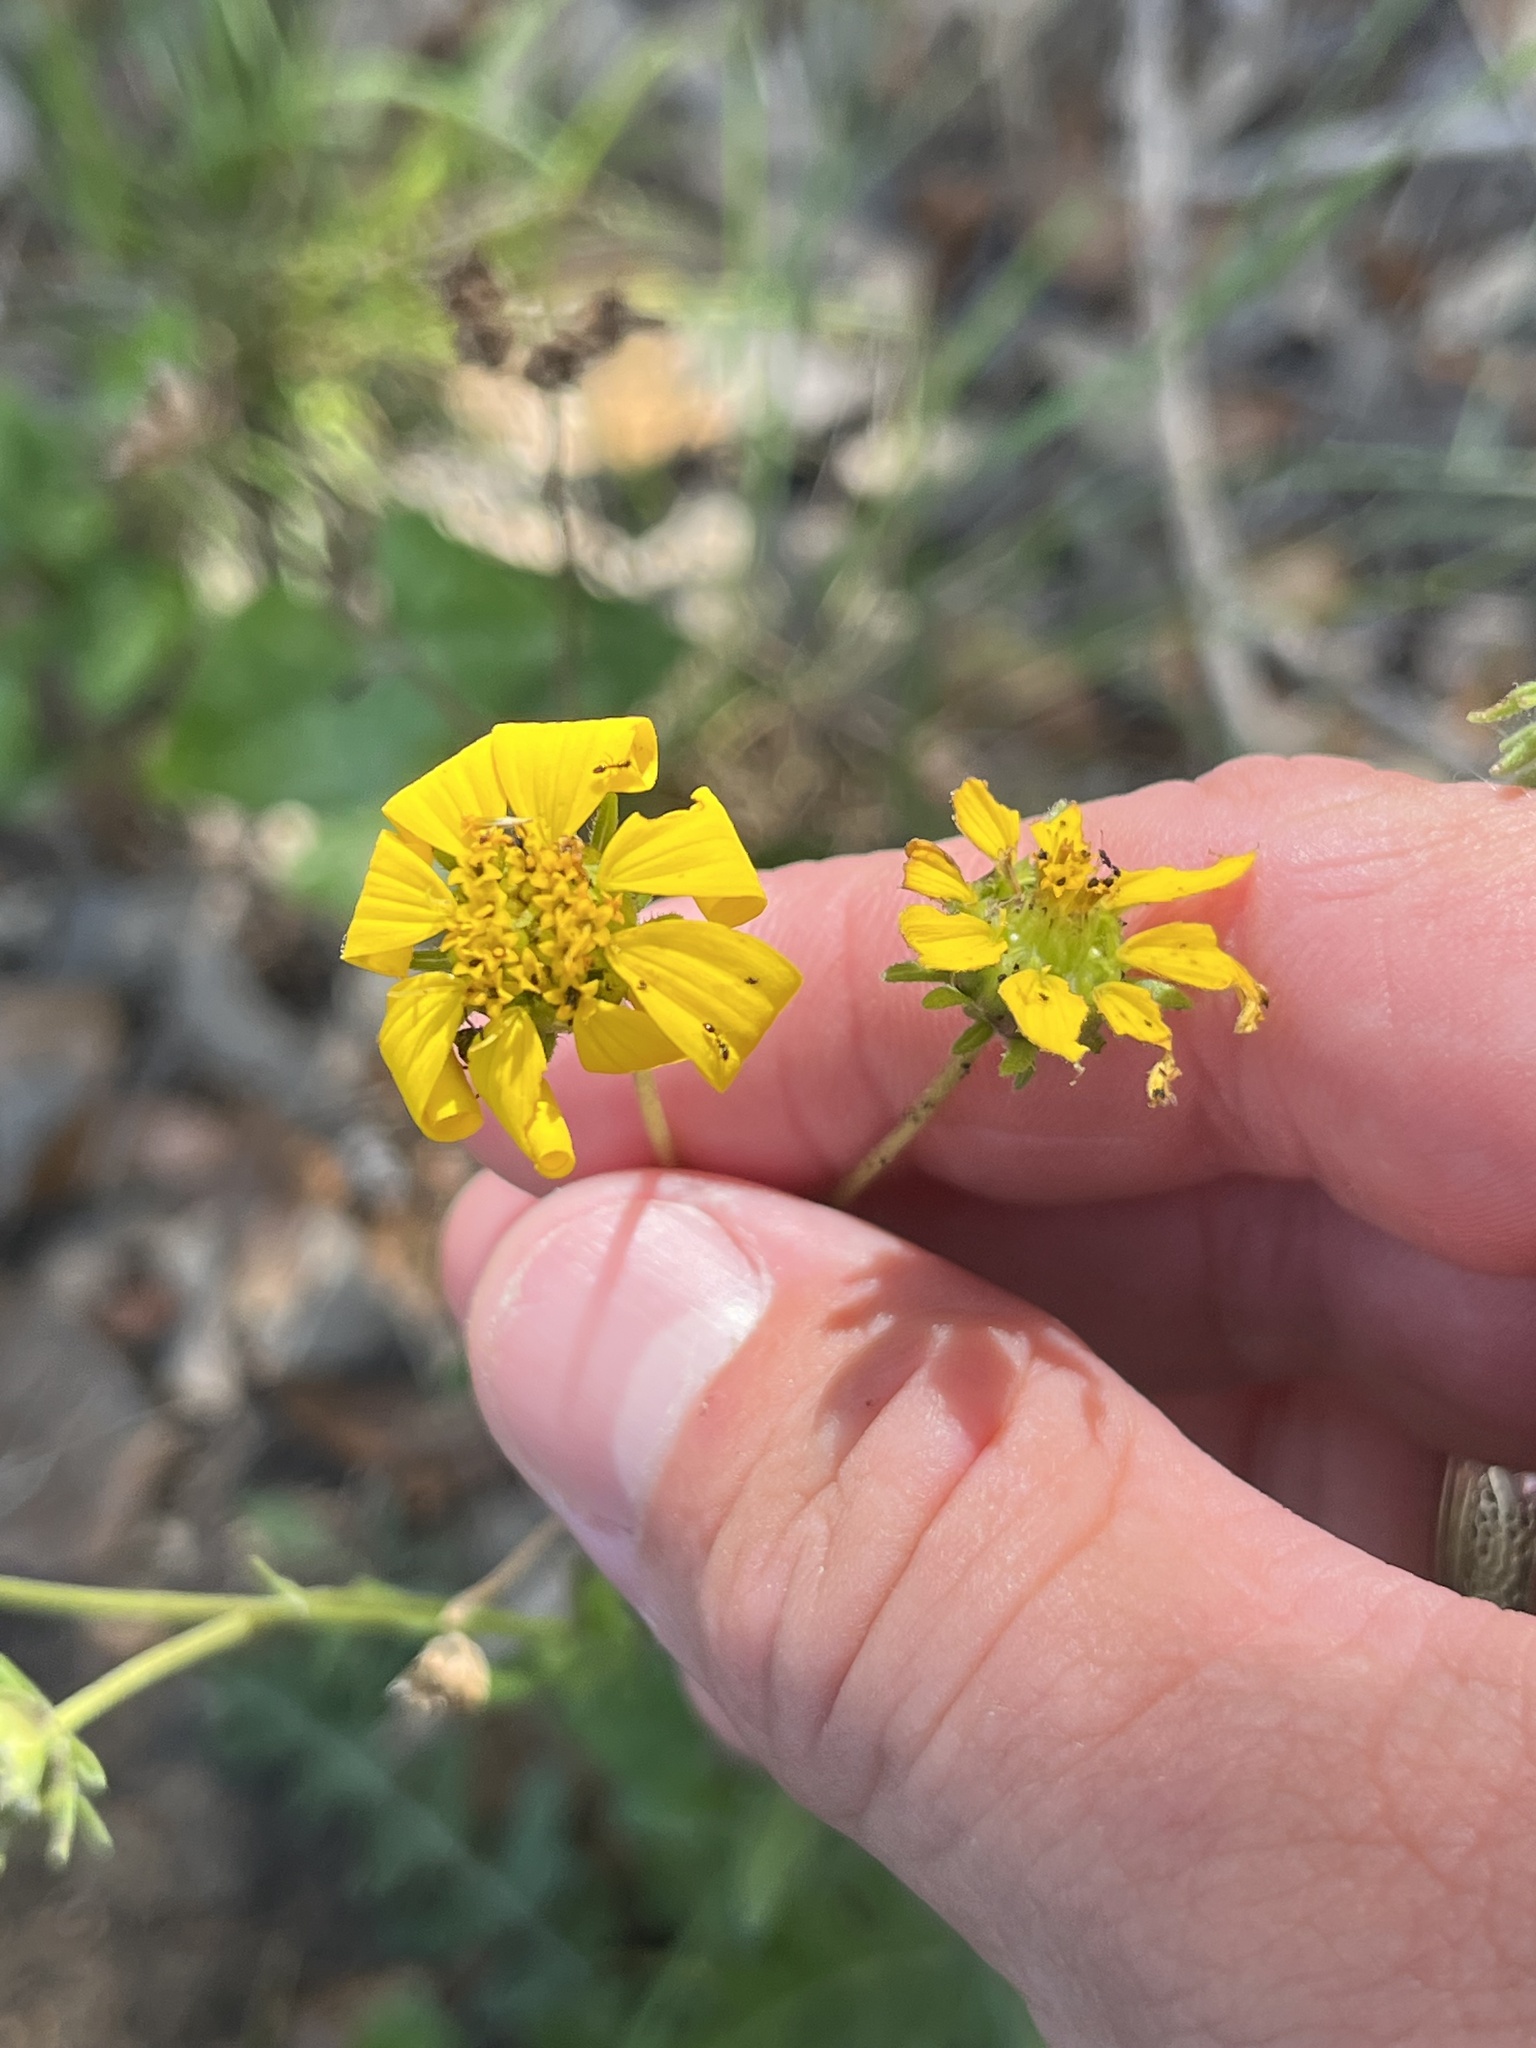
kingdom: Plantae
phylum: Tracheophyta
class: Magnoliopsida
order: Asterales
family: Asteraceae
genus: Engelmannia
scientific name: Engelmannia peristenia
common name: Engelmann's daisy
